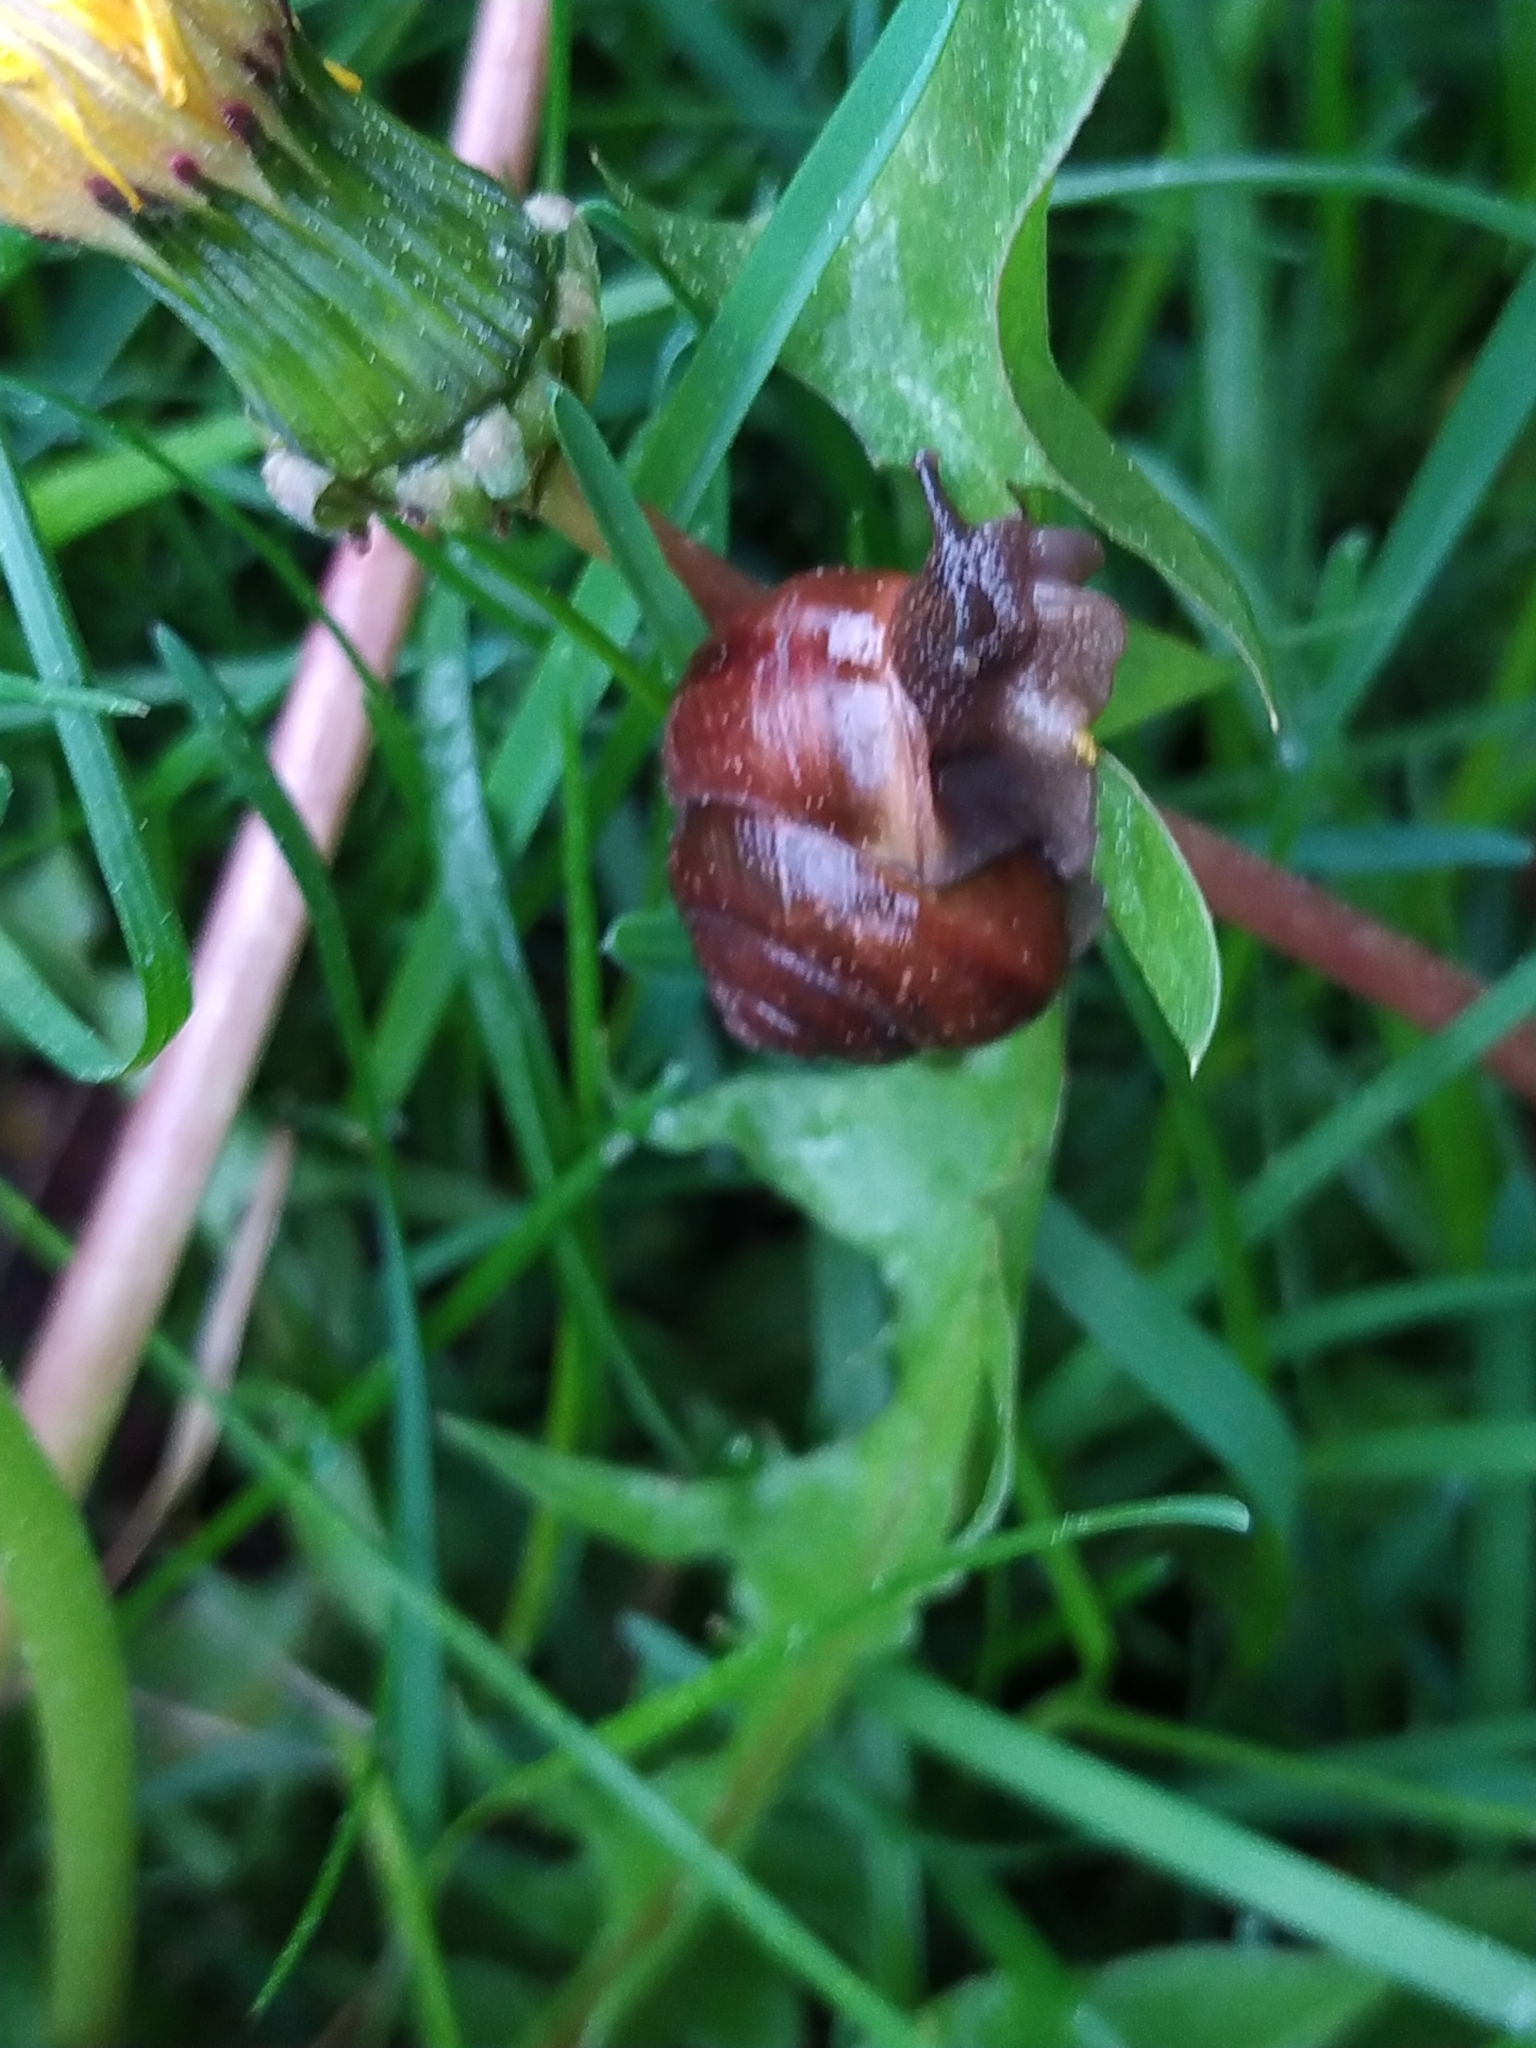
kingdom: Animalia
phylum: Mollusca
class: Gastropoda
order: Stylommatophora
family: Helicidae
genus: Arianta
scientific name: Arianta arbustorum
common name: Copse snail
